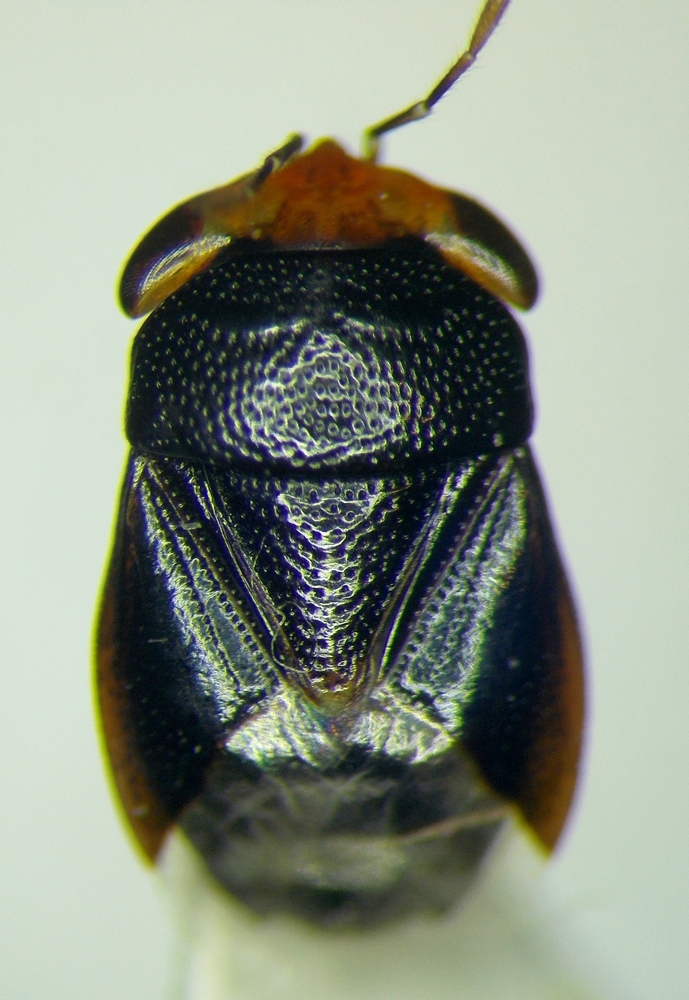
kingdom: Animalia
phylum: Arthropoda
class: Insecta
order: Hemiptera
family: Geocoridae
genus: Geocoris
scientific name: Geocoris erythrocephala
